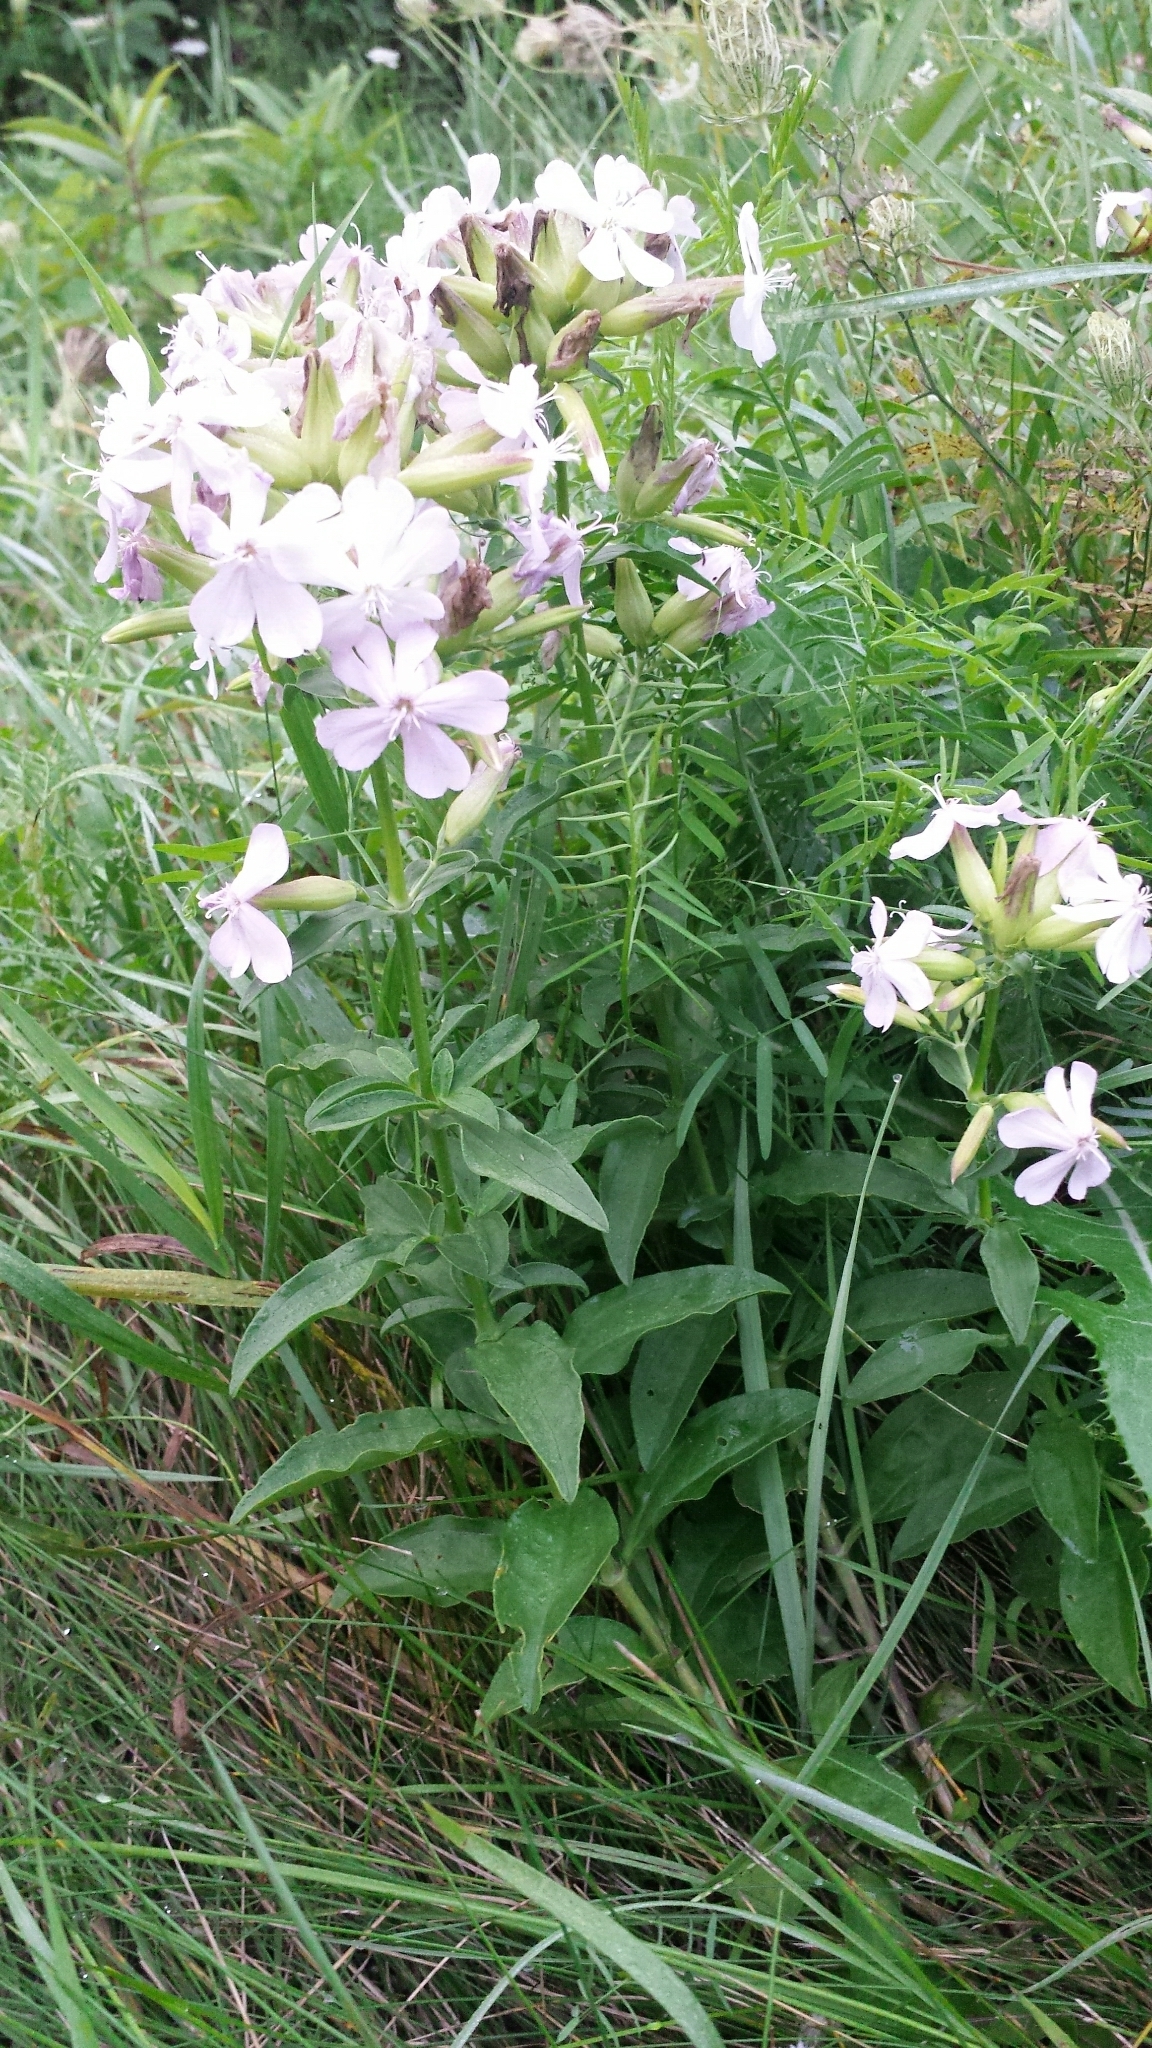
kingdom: Plantae
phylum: Tracheophyta
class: Magnoliopsida
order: Caryophyllales
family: Caryophyllaceae
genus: Saponaria
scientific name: Saponaria officinalis
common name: Soapwort
